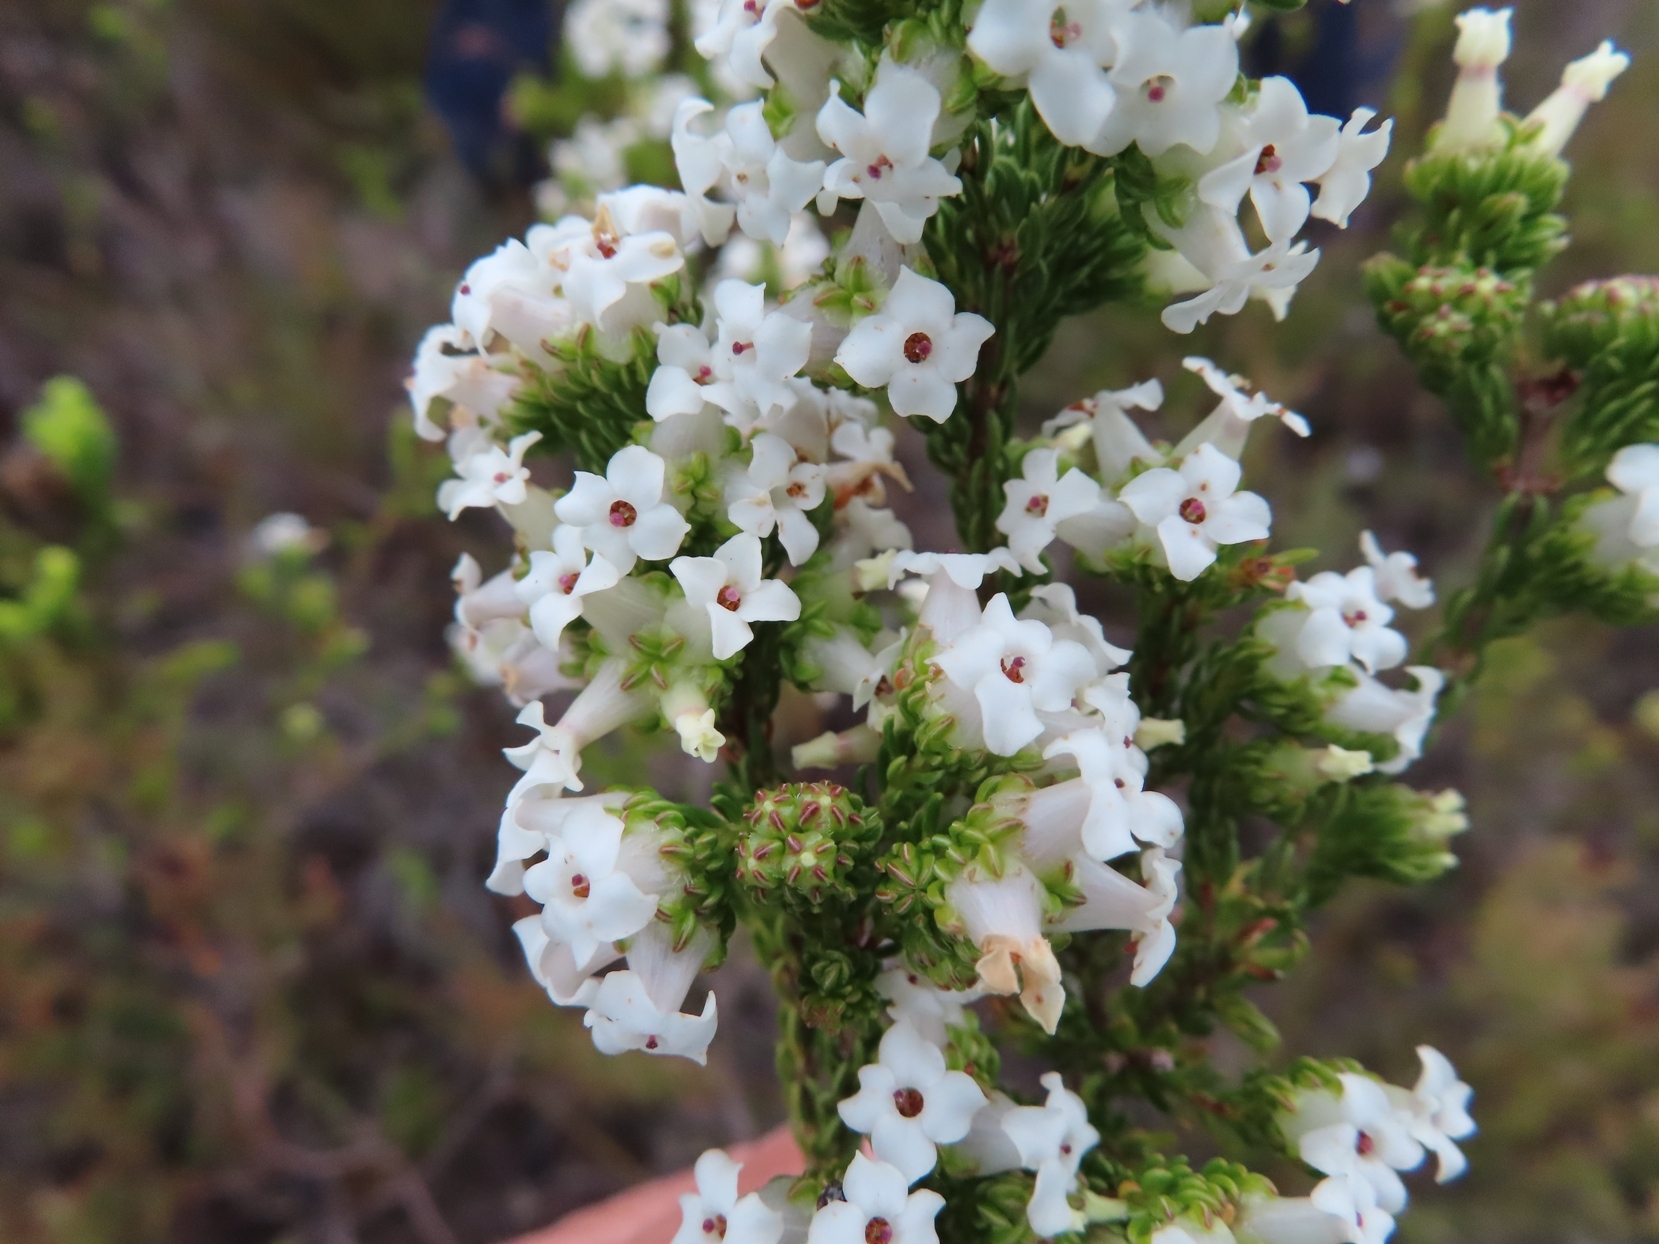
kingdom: Plantae
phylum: Tracheophyta
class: Magnoliopsida
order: Ericales
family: Ericaceae
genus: Erica
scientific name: Erica denticulata
